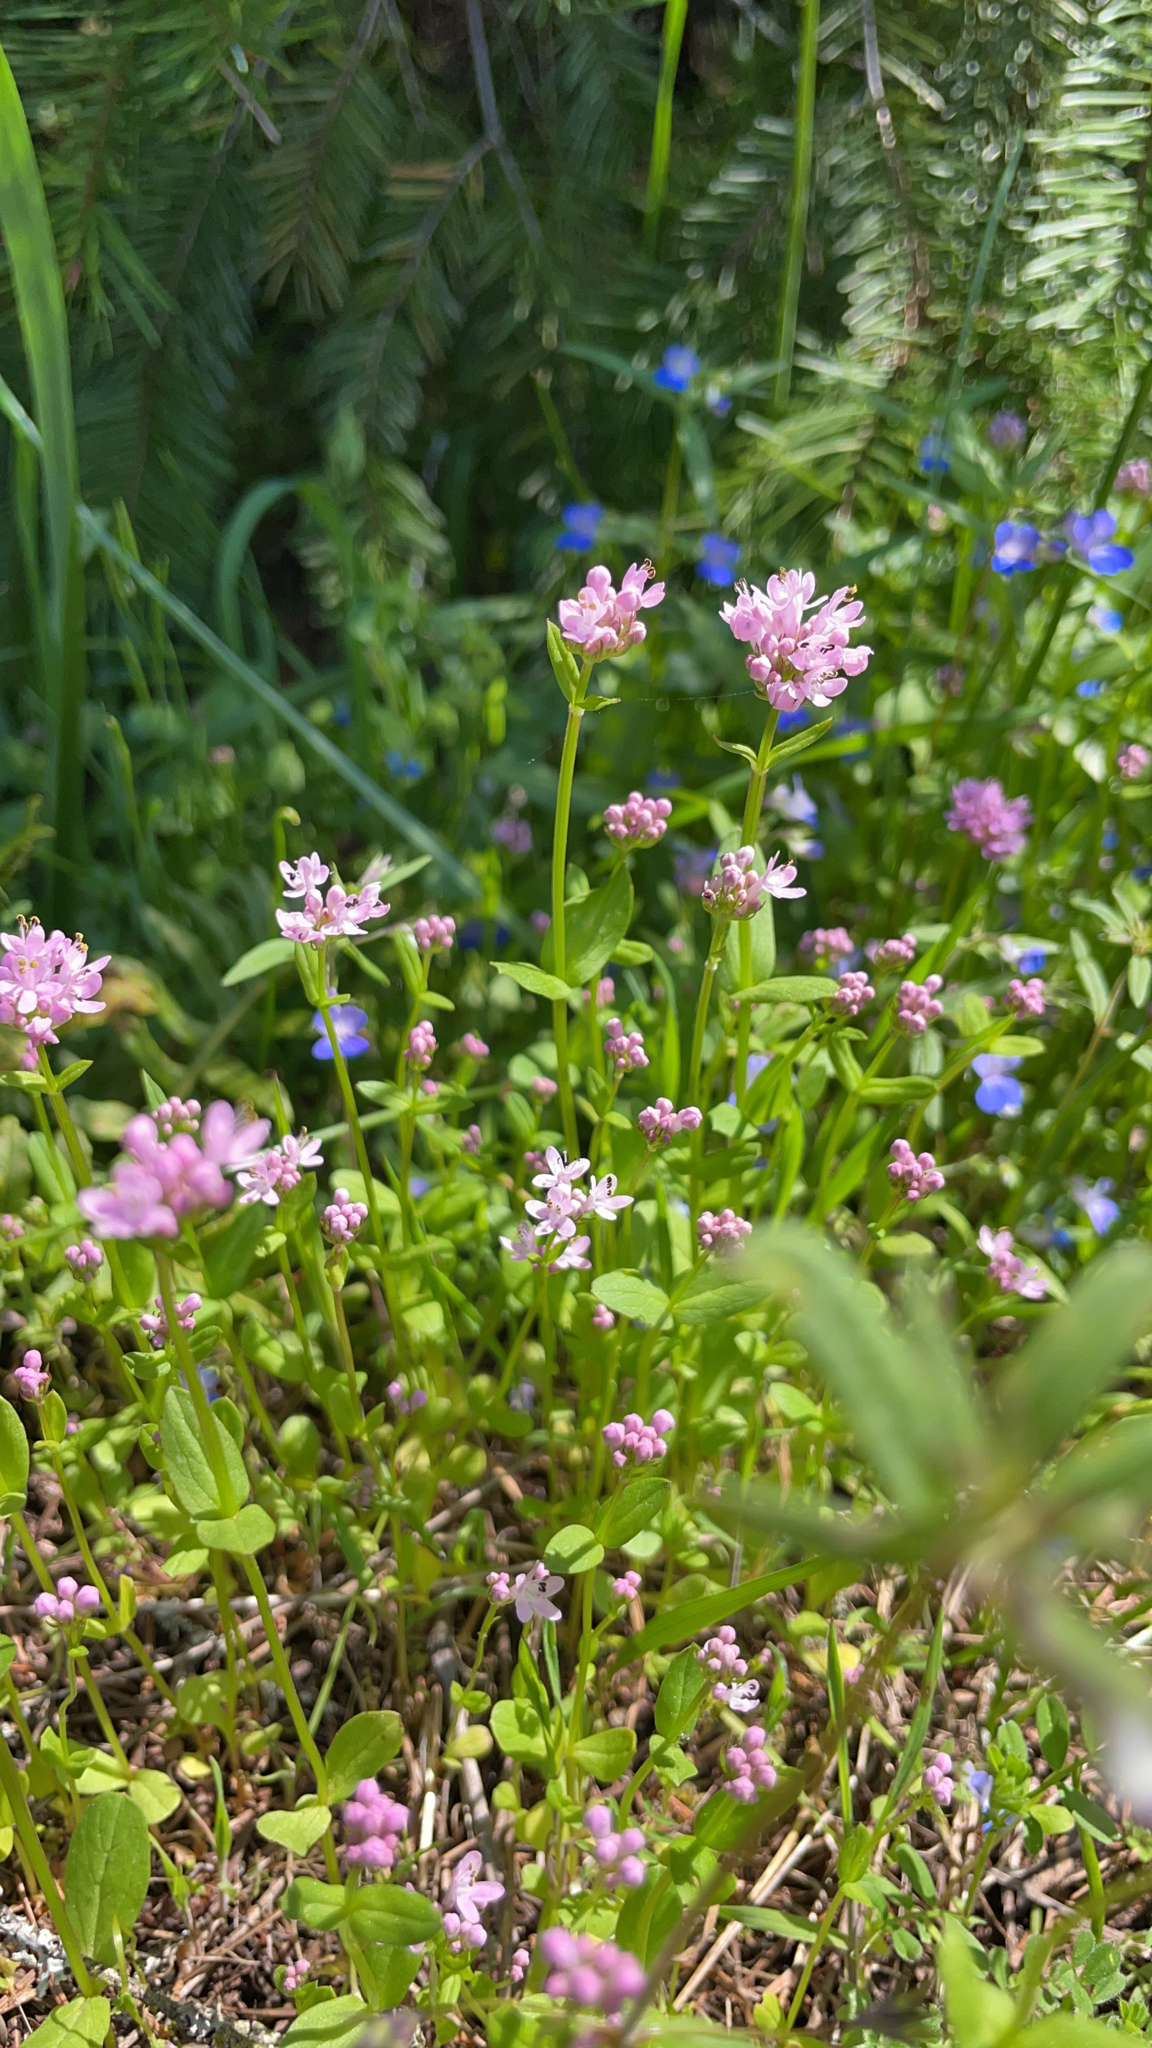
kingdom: Plantae
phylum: Tracheophyta
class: Magnoliopsida
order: Dipsacales
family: Caprifoliaceae
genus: Plectritis
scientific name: Plectritis congesta
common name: Pink plectritis
